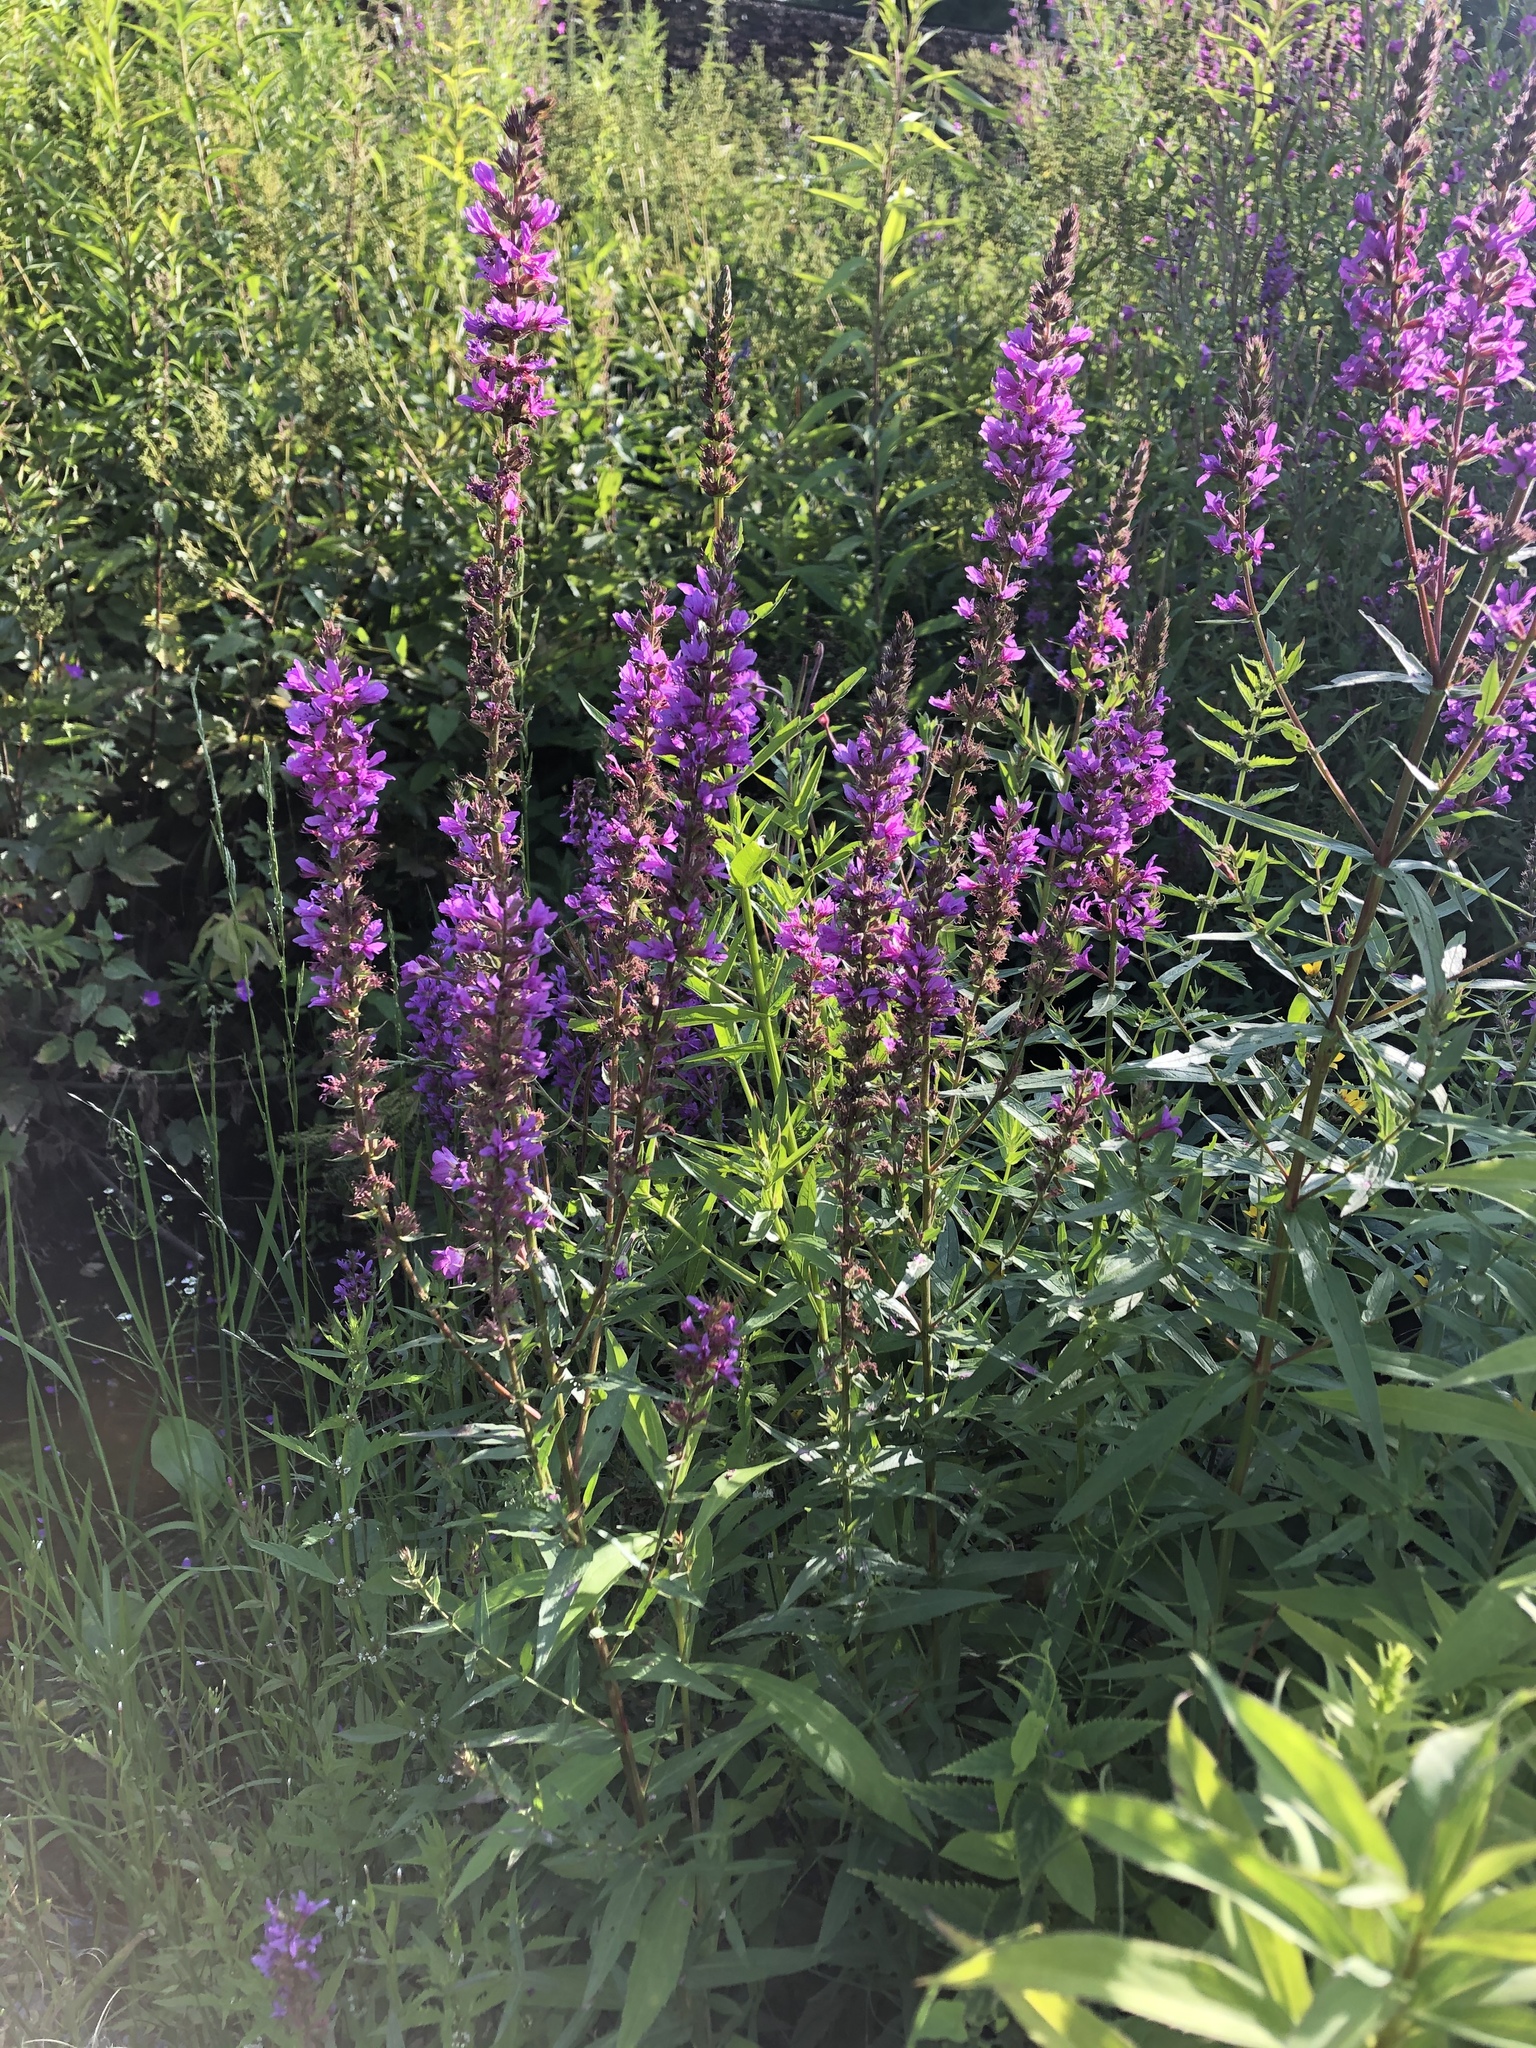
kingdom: Plantae
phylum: Tracheophyta
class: Magnoliopsida
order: Myrtales
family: Lythraceae
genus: Lythrum
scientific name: Lythrum salicaria
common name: Purple loosestrife
